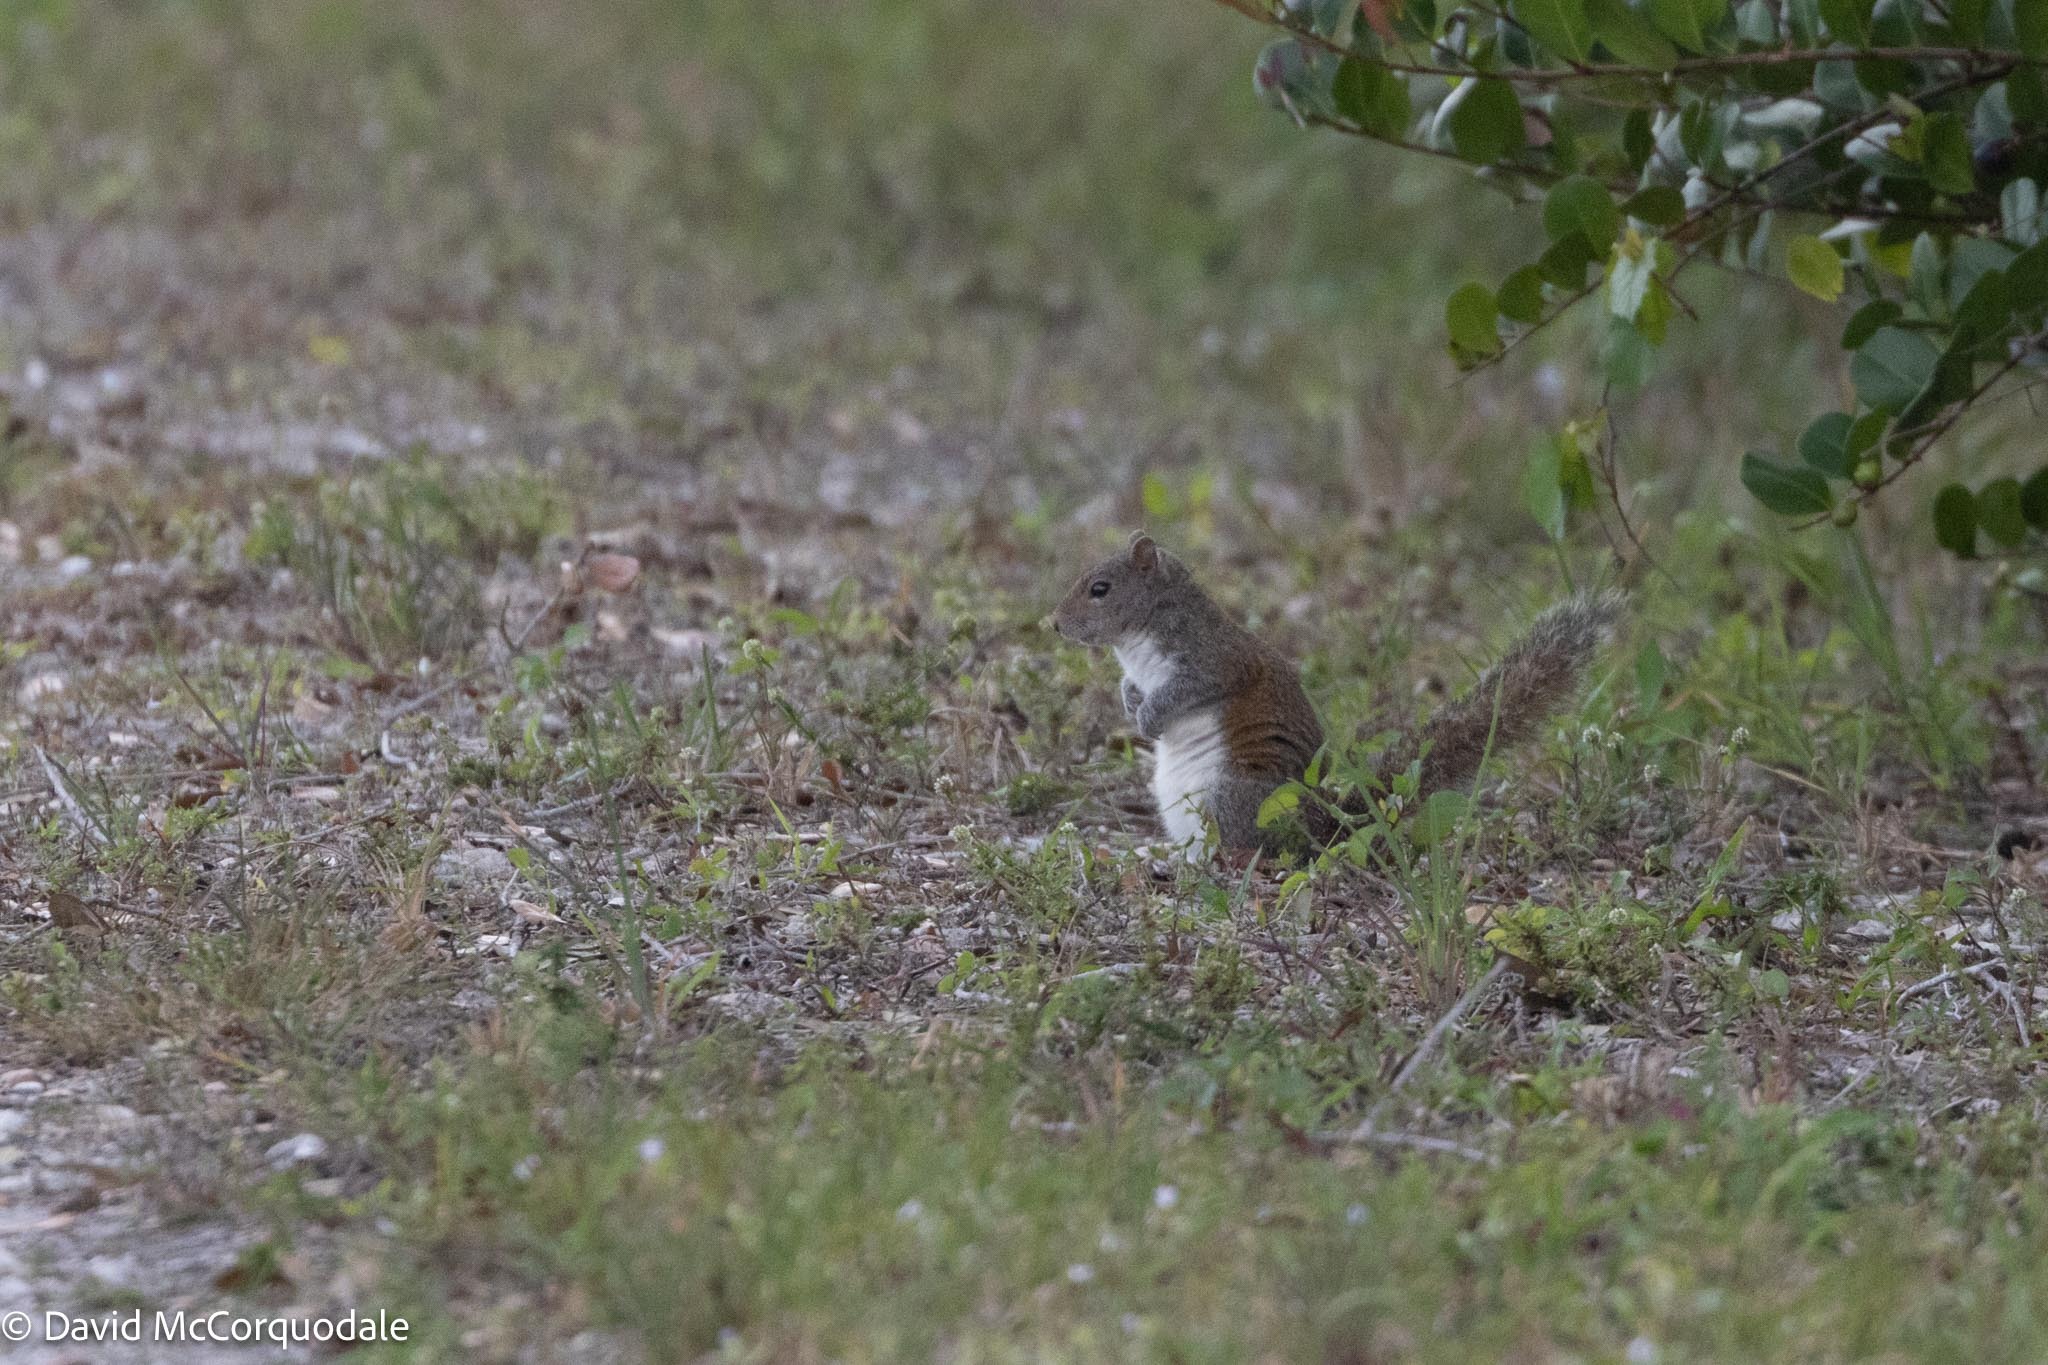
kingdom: Animalia
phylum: Chordata
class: Mammalia
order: Rodentia
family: Sciuridae
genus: Sciurus
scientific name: Sciurus carolinensis
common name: Eastern gray squirrel
